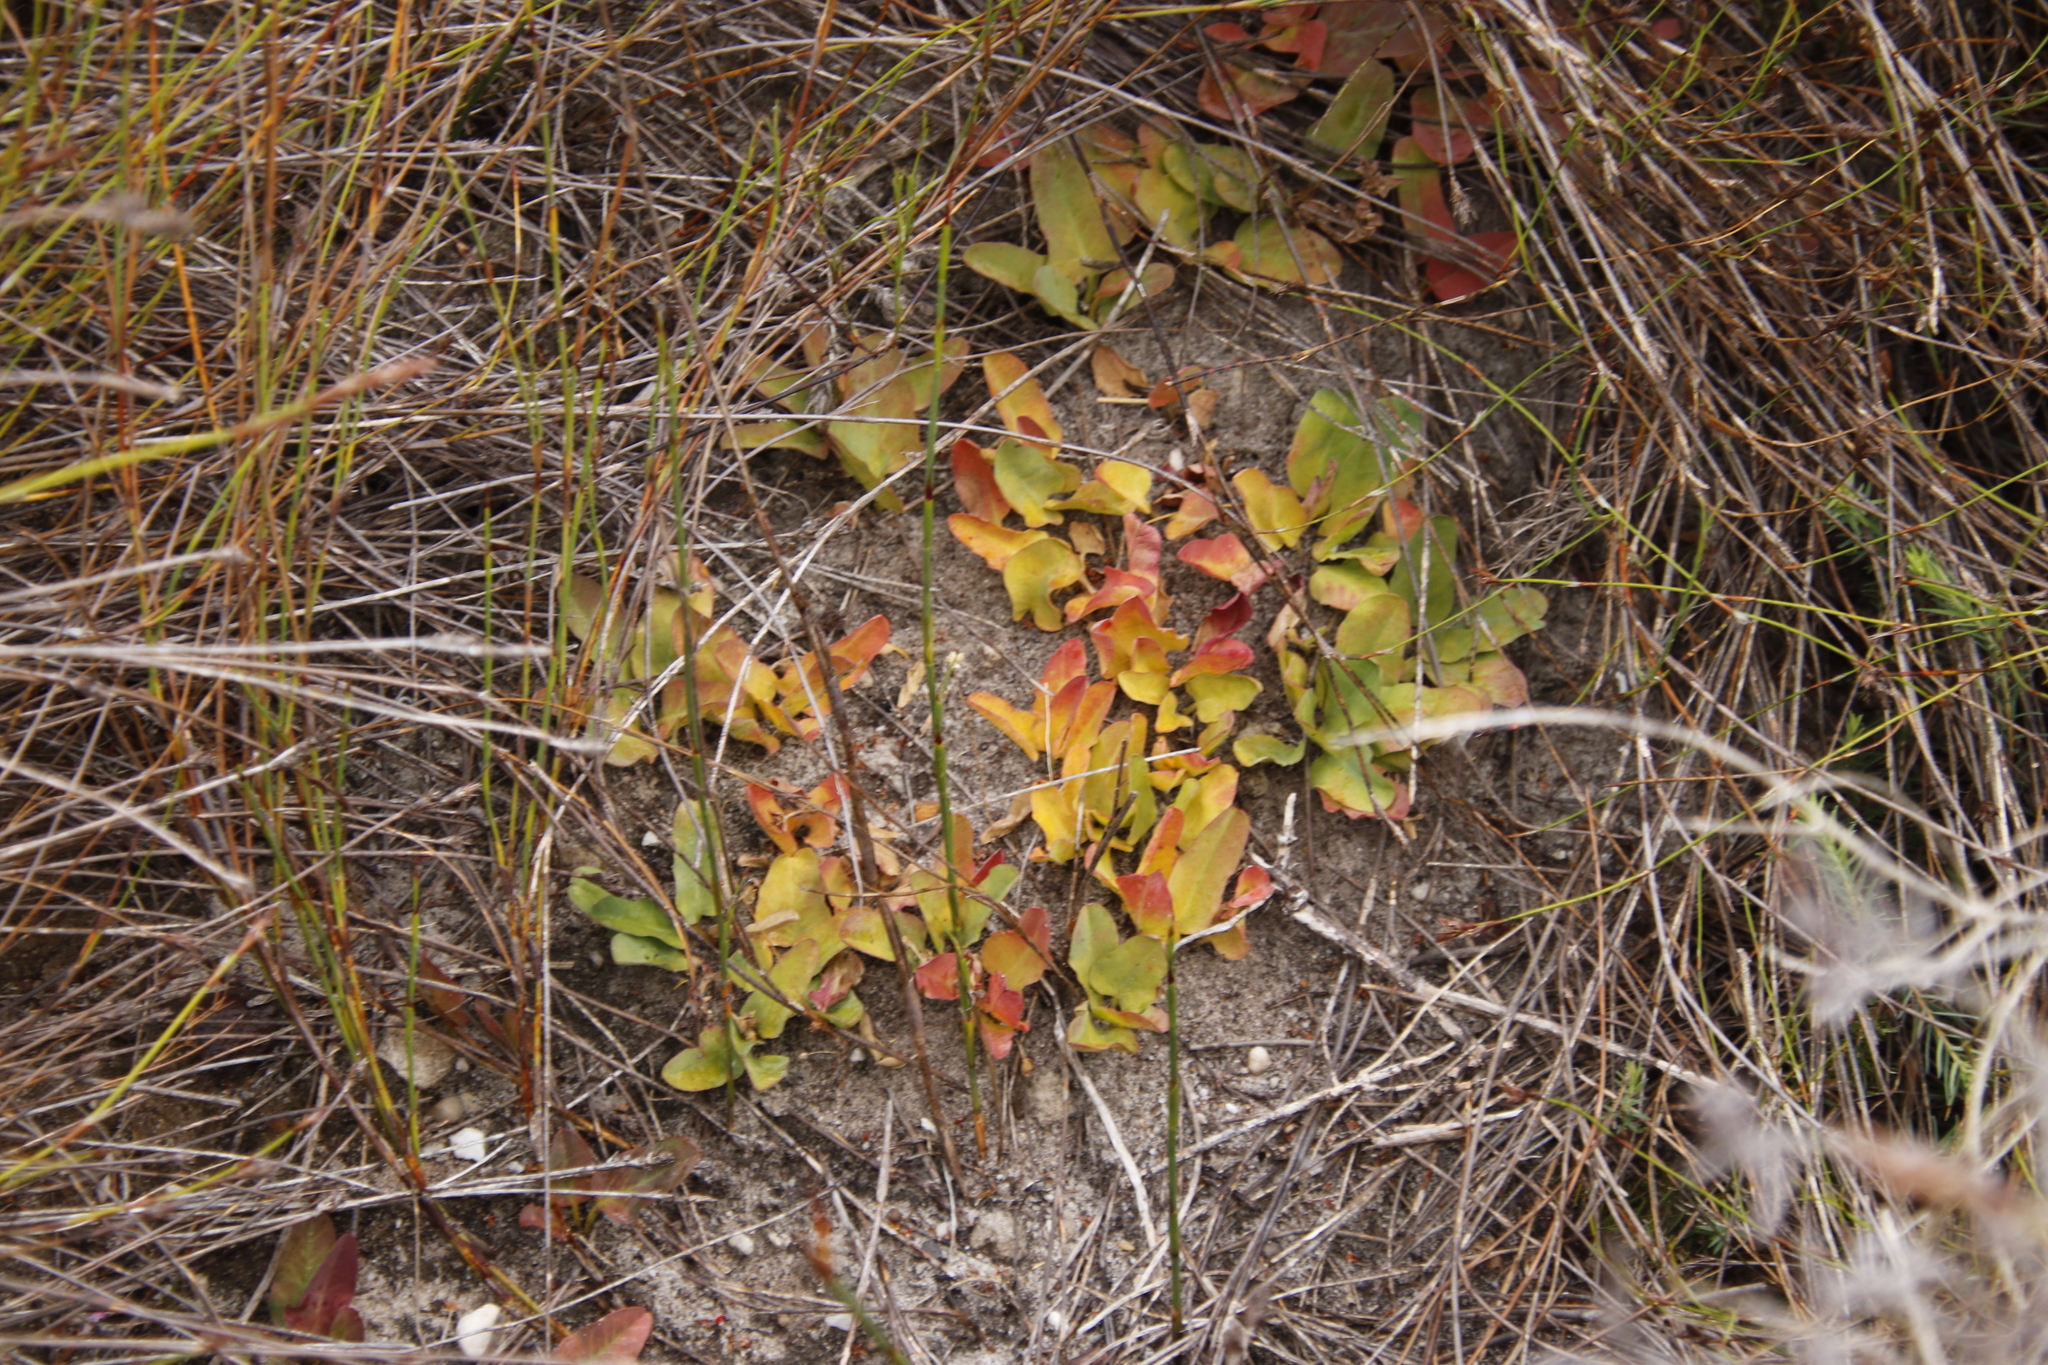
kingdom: Plantae
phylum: Tracheophyta
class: Magnoliopsida
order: Malpighiales
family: Euphorbiaceae
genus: Euphorbia
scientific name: Euphorbia tuberosa
